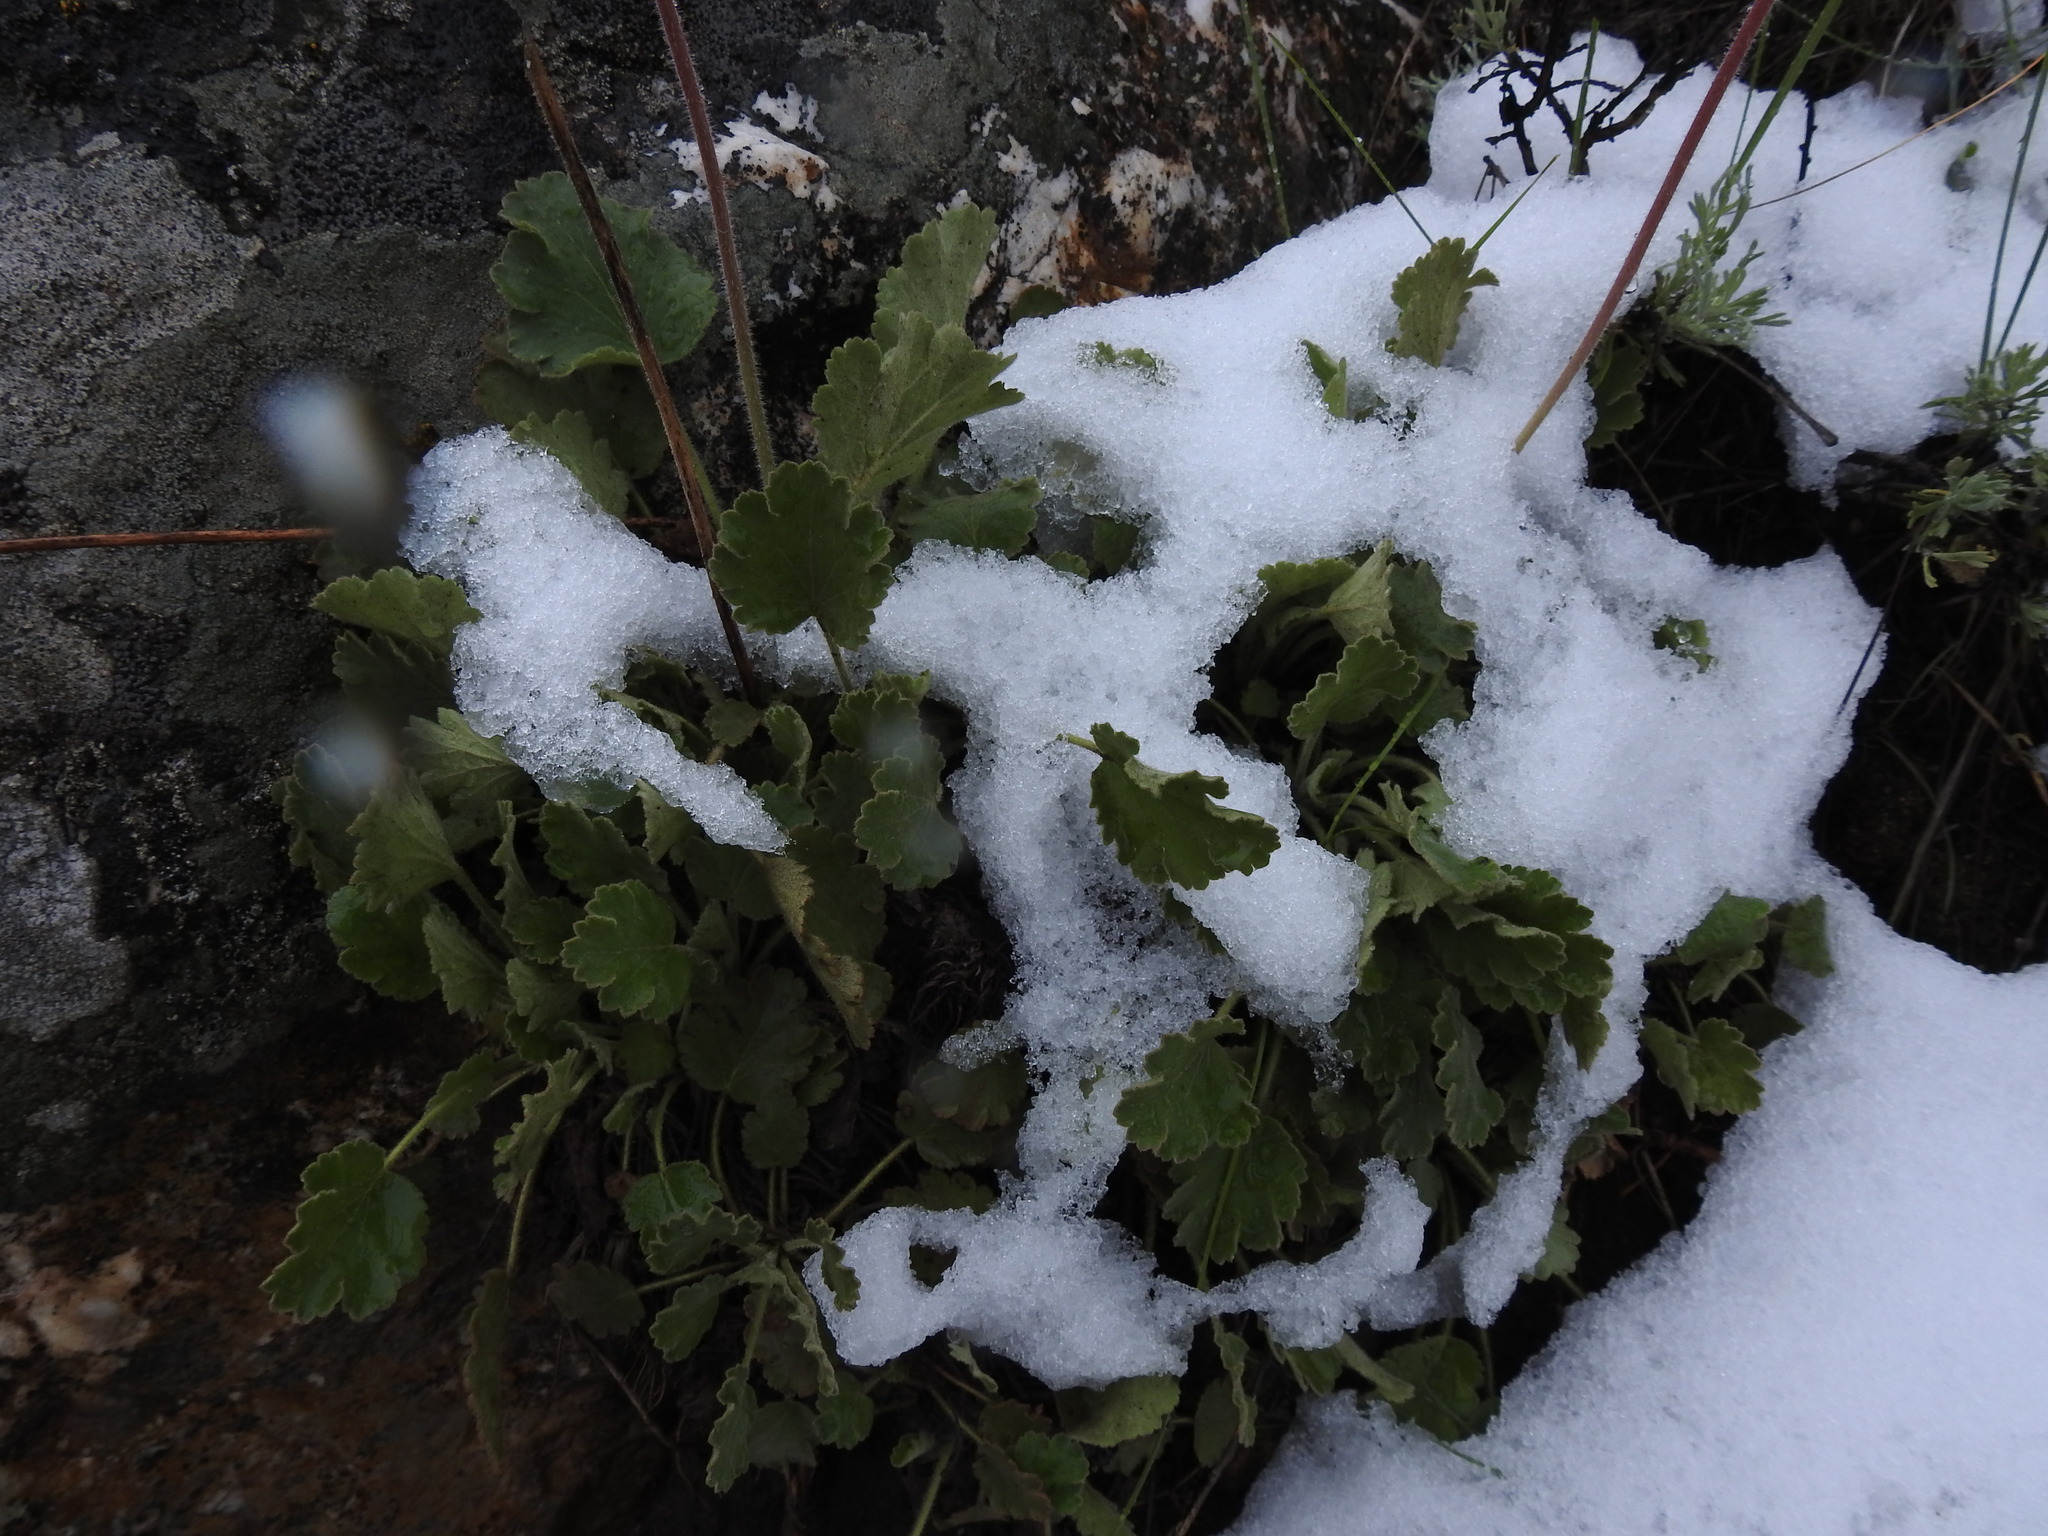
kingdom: Plantae
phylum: Tracheophyta
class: Magnoliopsida
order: Saxifragales
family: Saxifragaceae
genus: Heuchera
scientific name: Heuchera cylindrica
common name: Mat alumroot
